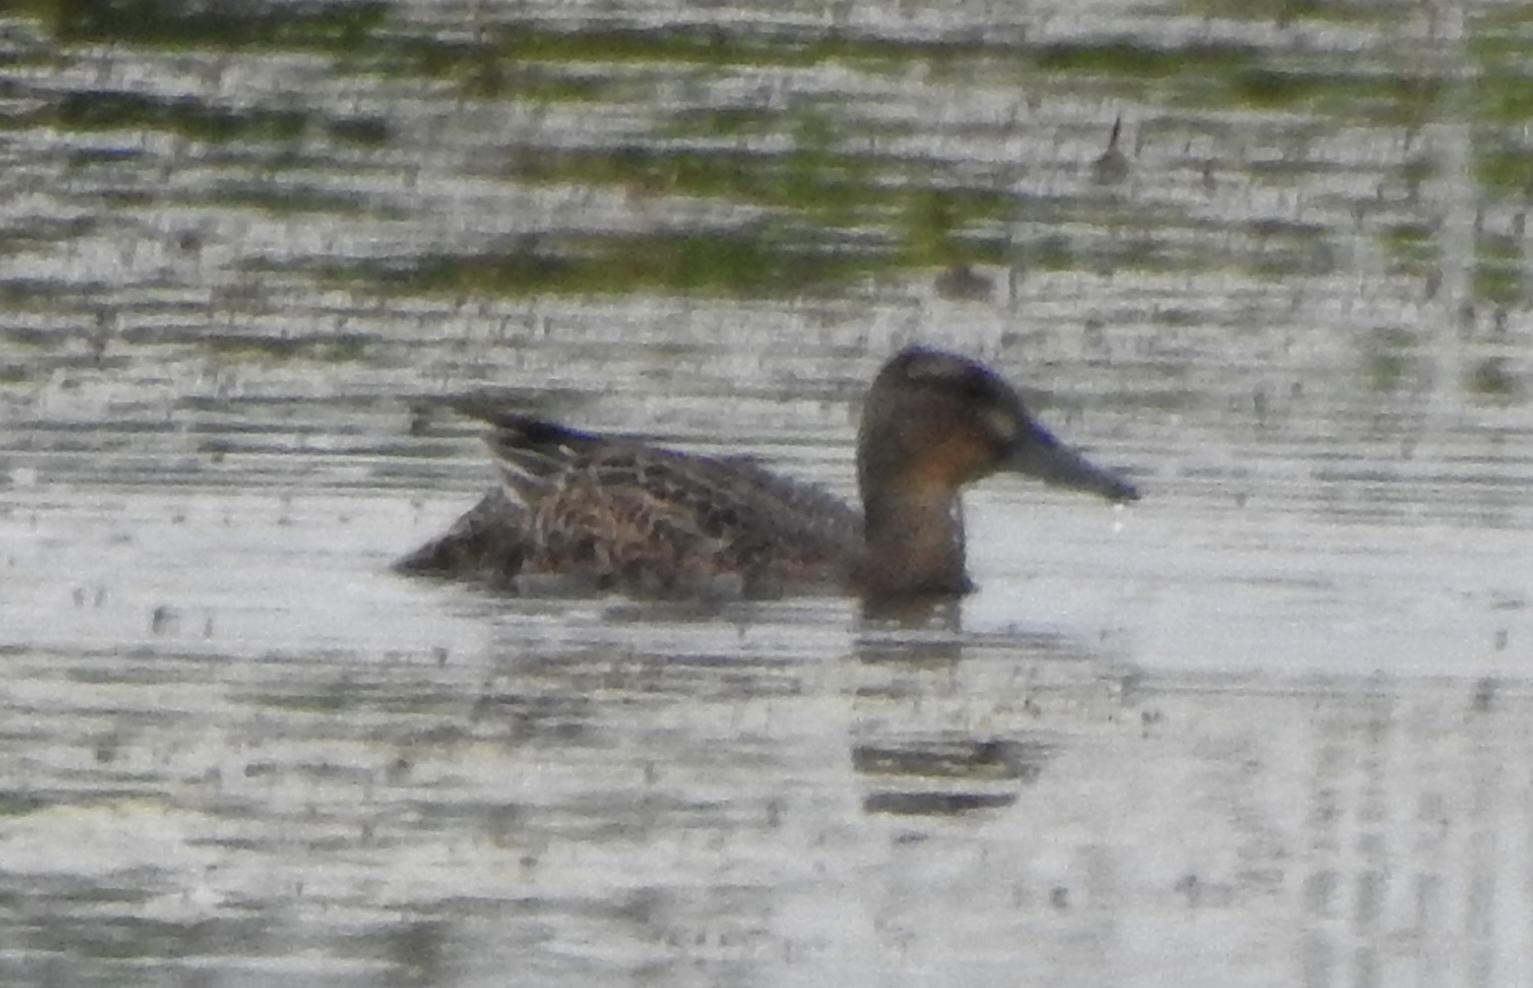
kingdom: Animalia
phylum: Chordata
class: Aves
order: Anseriformes
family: Anatidae
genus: Spatula
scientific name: Spatula querquedula
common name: Garganey
